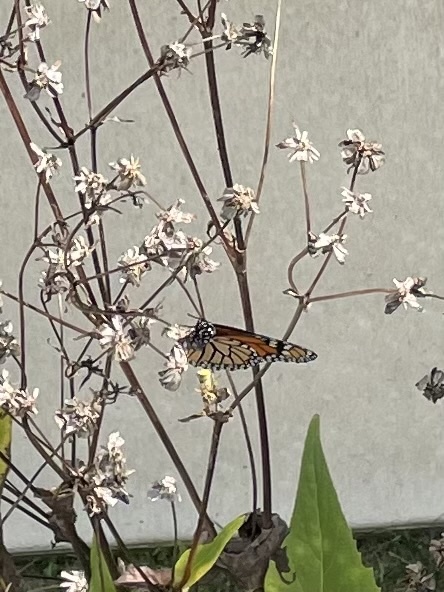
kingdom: Animalia
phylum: Arthropoda
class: Insecta
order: Lepidoptera
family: Nymphalidae
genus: Danaus
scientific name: Danaus plexippus
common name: Monarch
